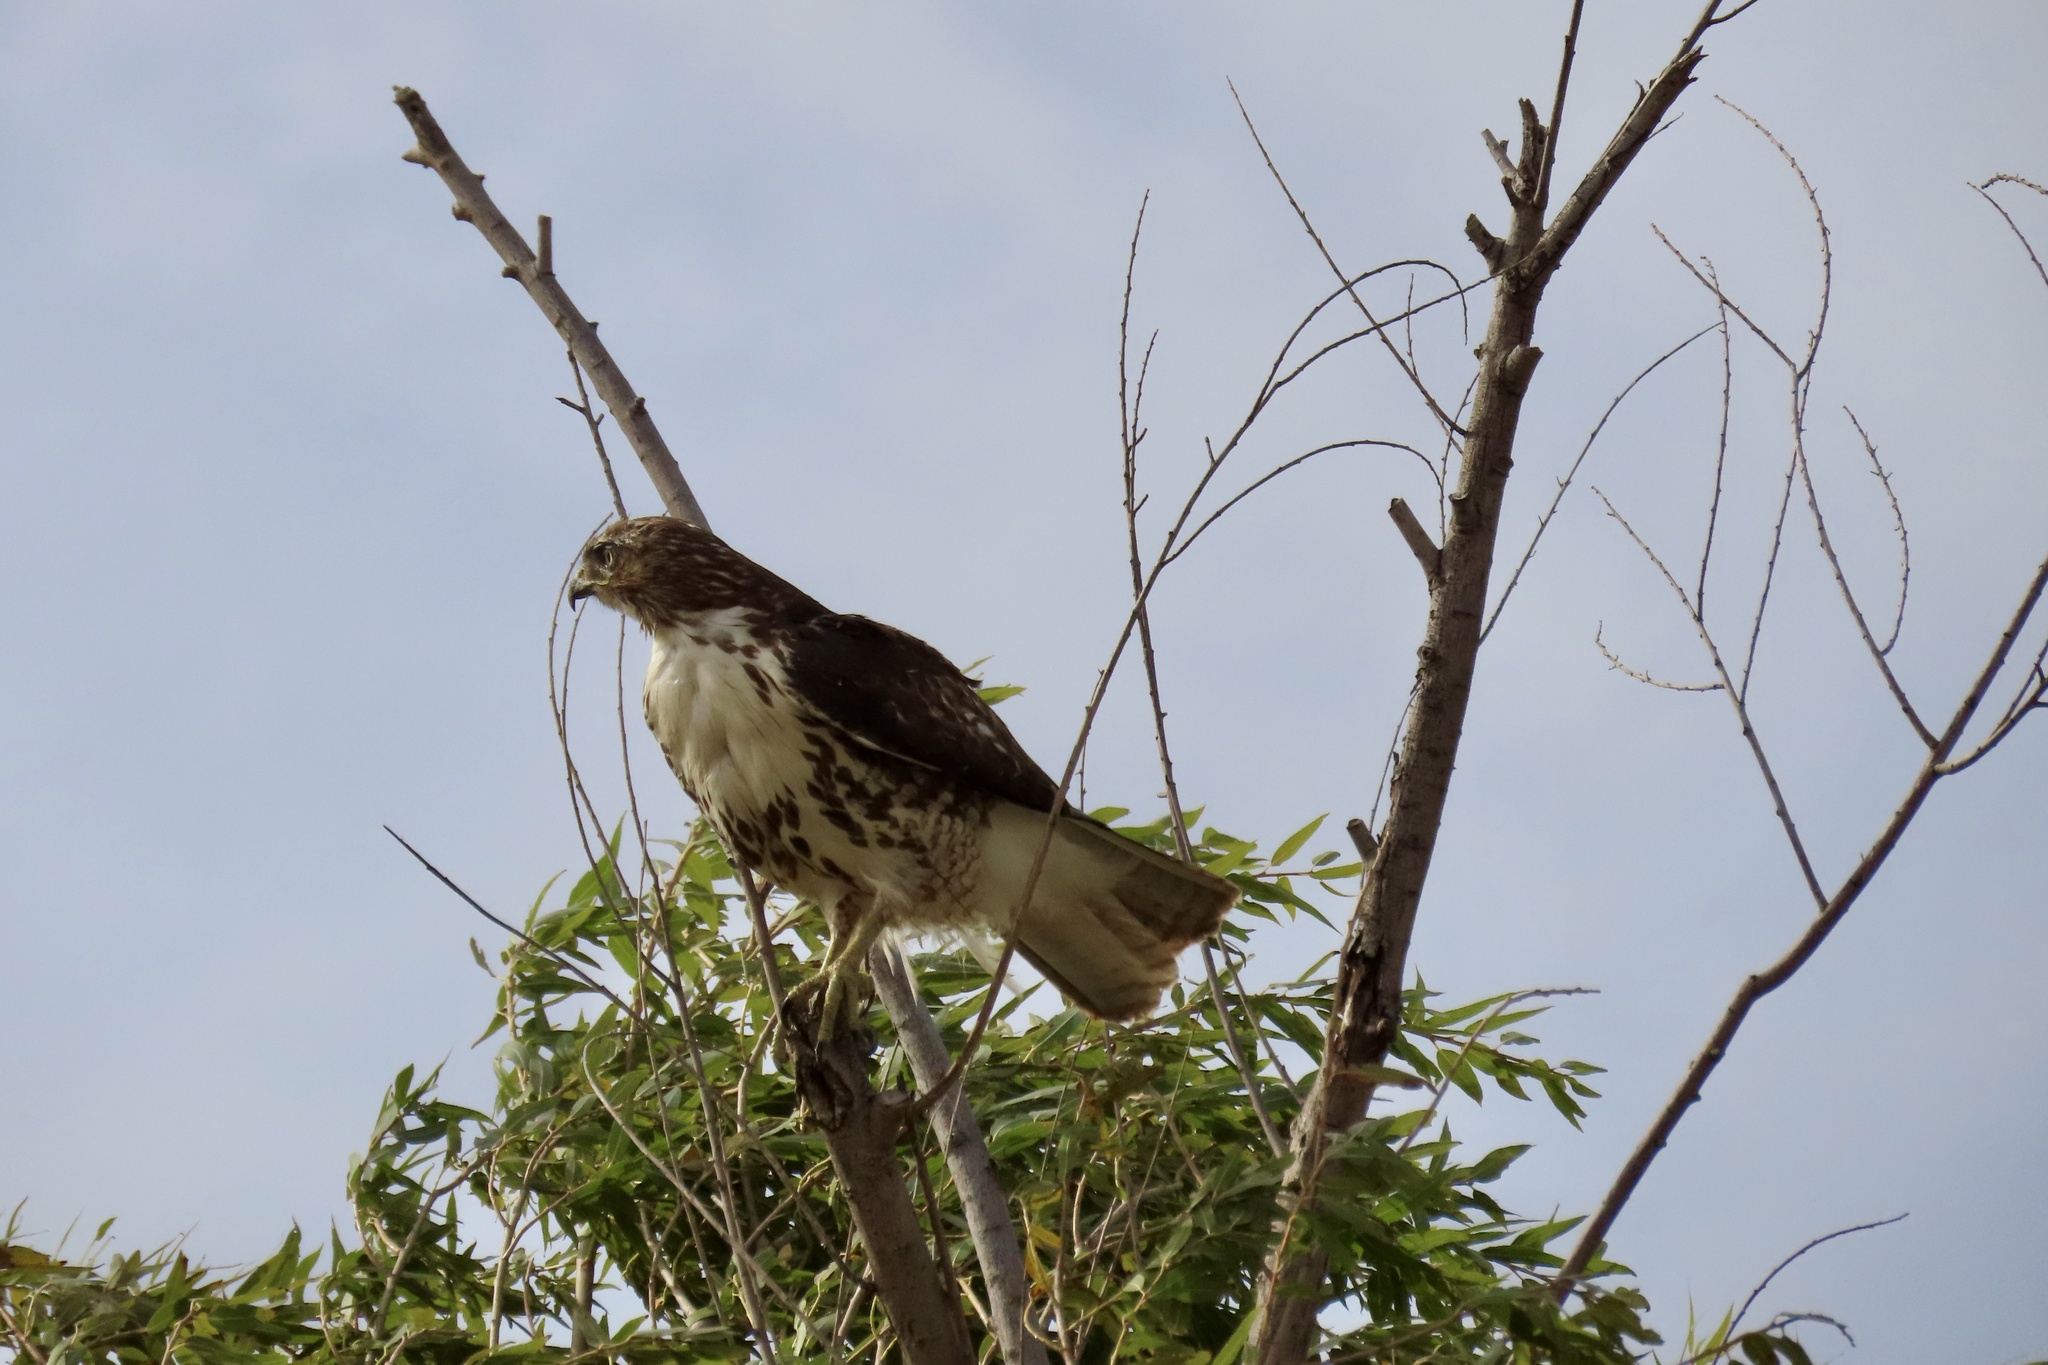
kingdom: Animalia
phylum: Chordata
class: Aves
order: Accipitriformes
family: Accipitridae
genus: Buteo
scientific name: Buteo jamaicensis
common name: Red-tailed hawk
